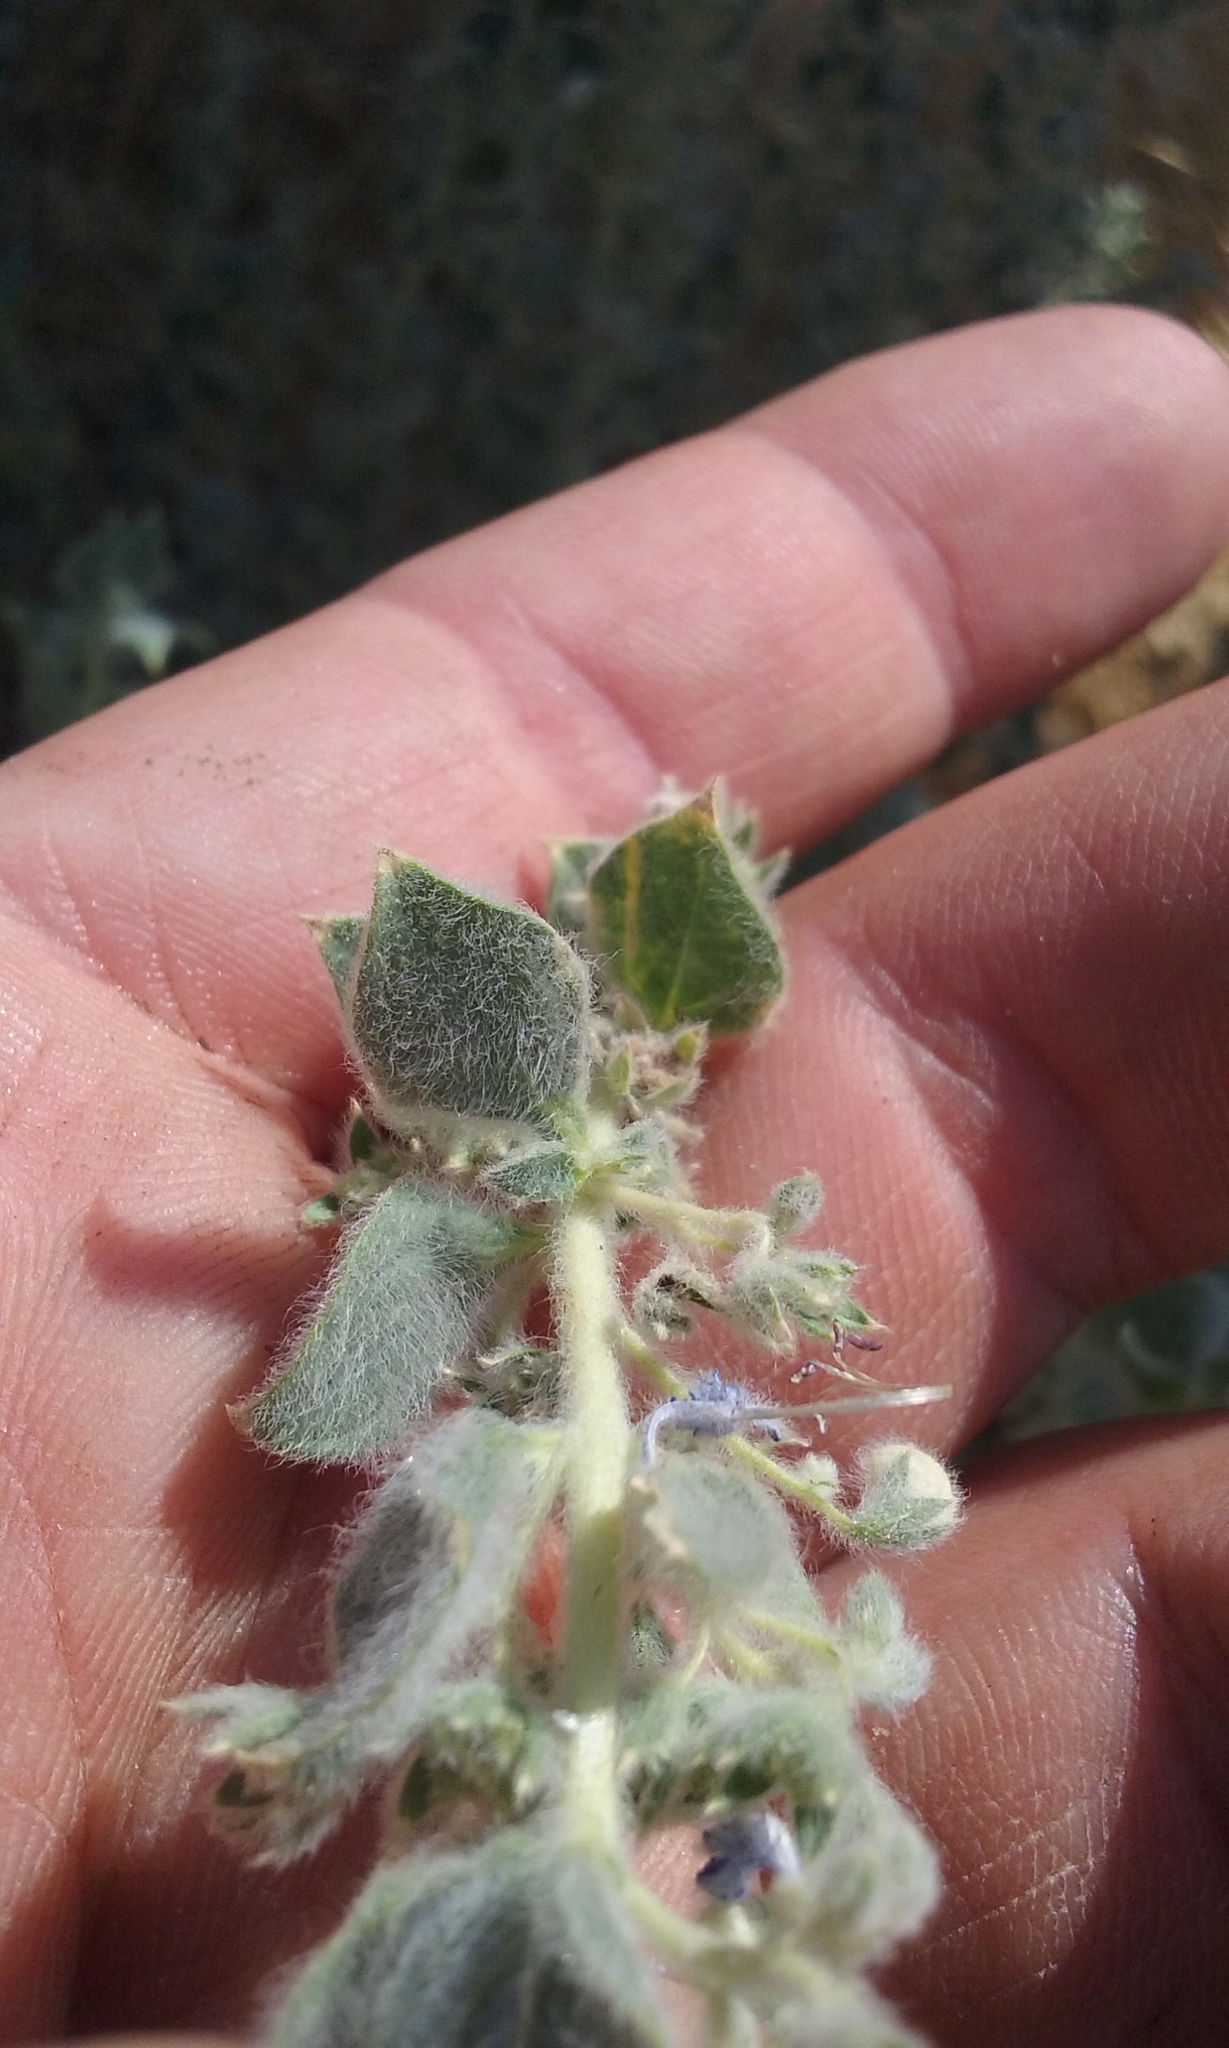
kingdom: Plantae
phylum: Tracheophyta
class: Magnoliopsida
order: Lamiales
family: Lamiaceae
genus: Trichostema
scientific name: Trichostema ovatum
